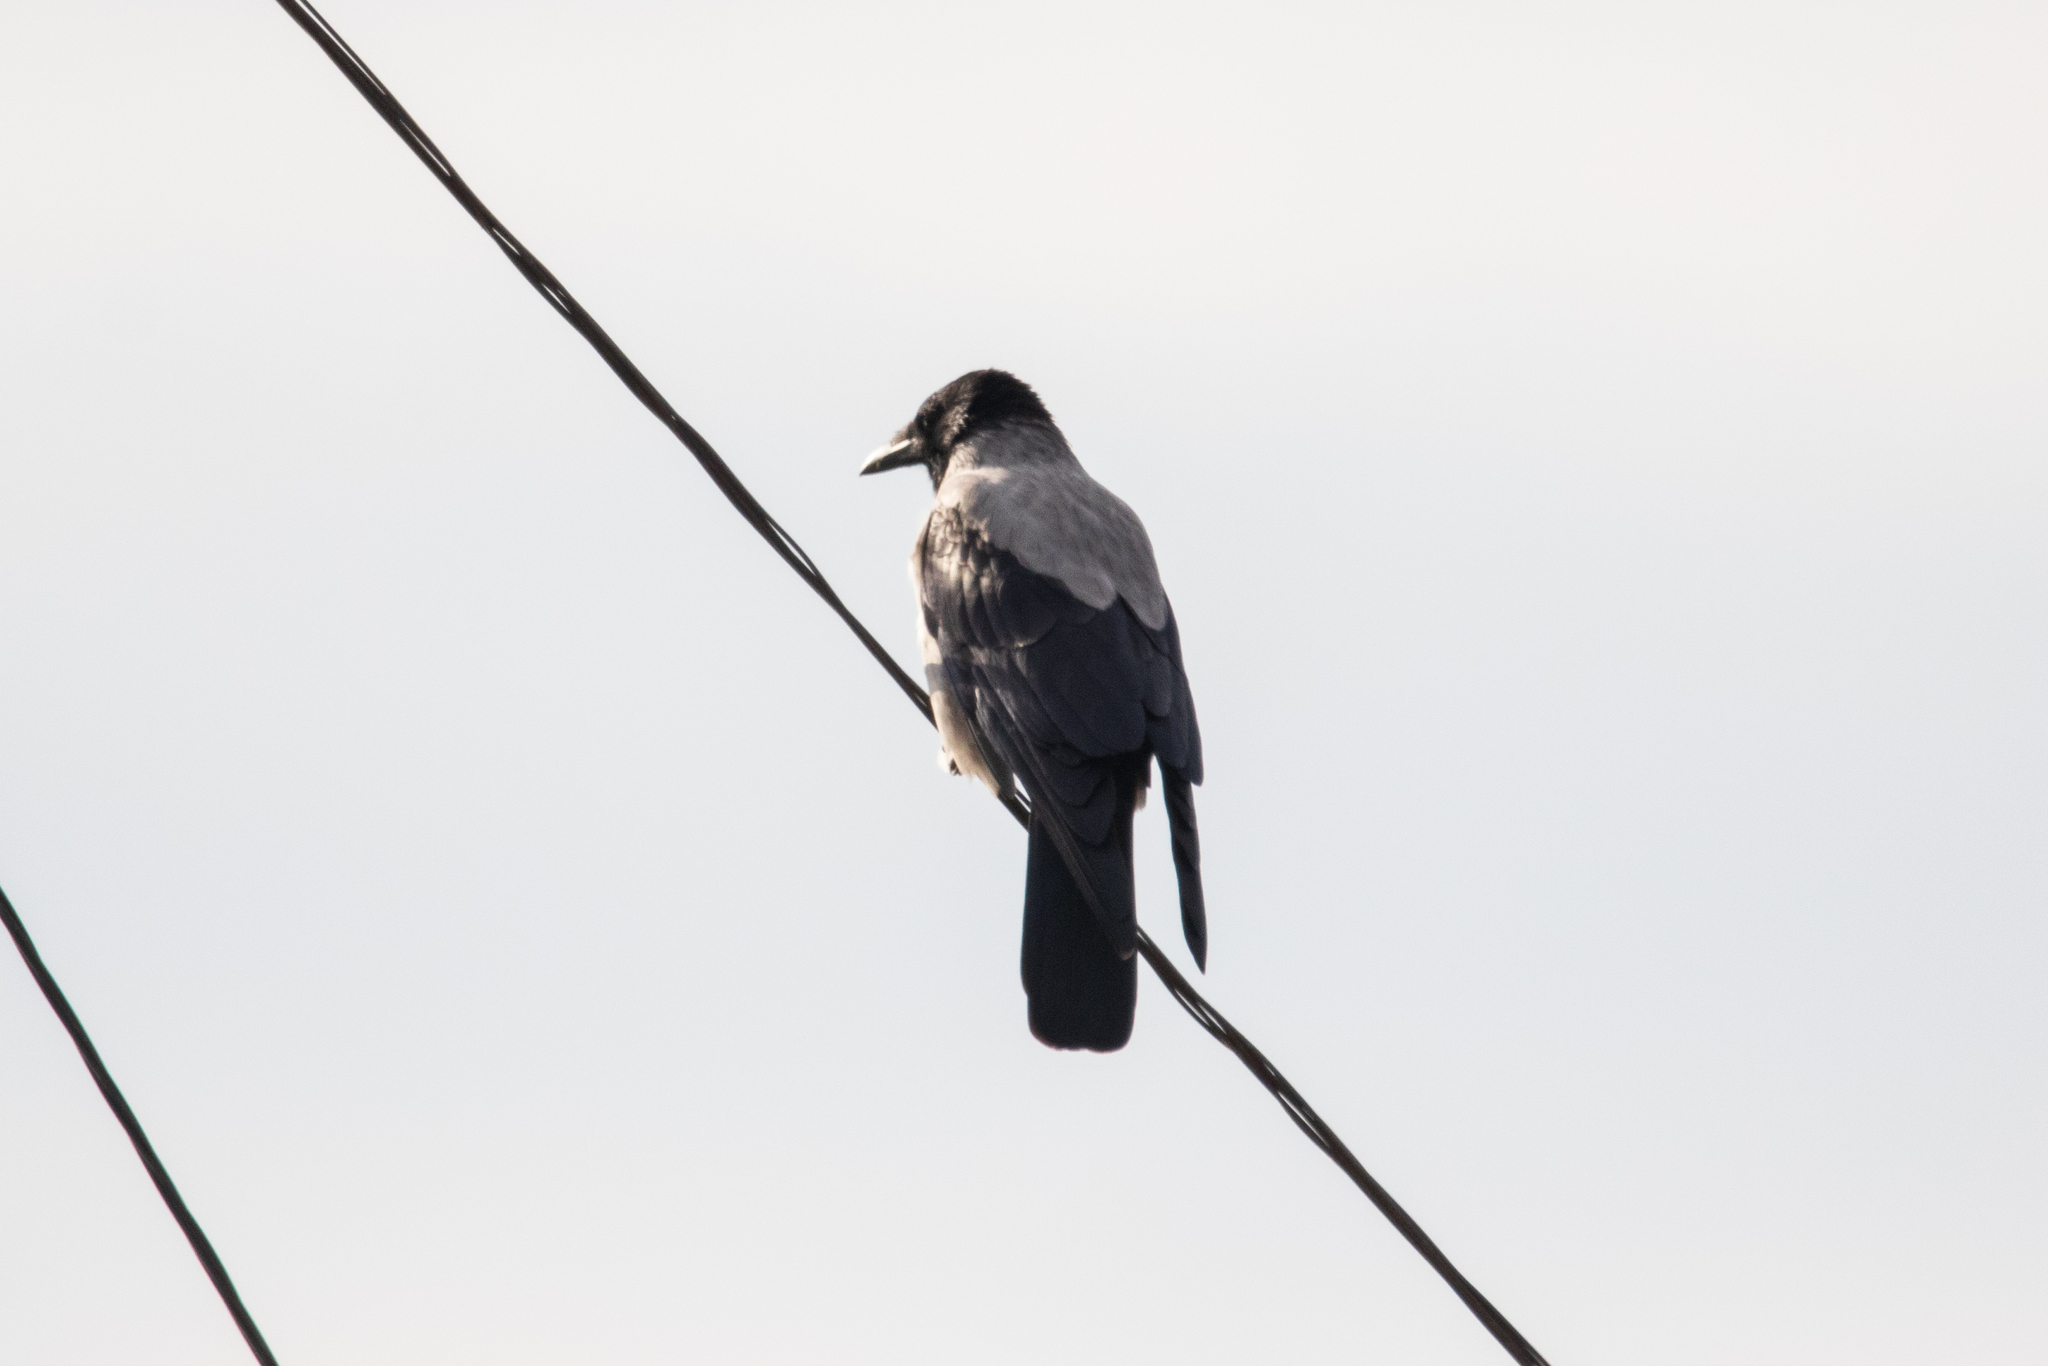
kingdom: Animalia
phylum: Chordata
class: Aves
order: Passeriformes
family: Corvidae
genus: Corvus
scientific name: Corvus cornix
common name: Hooded crow
